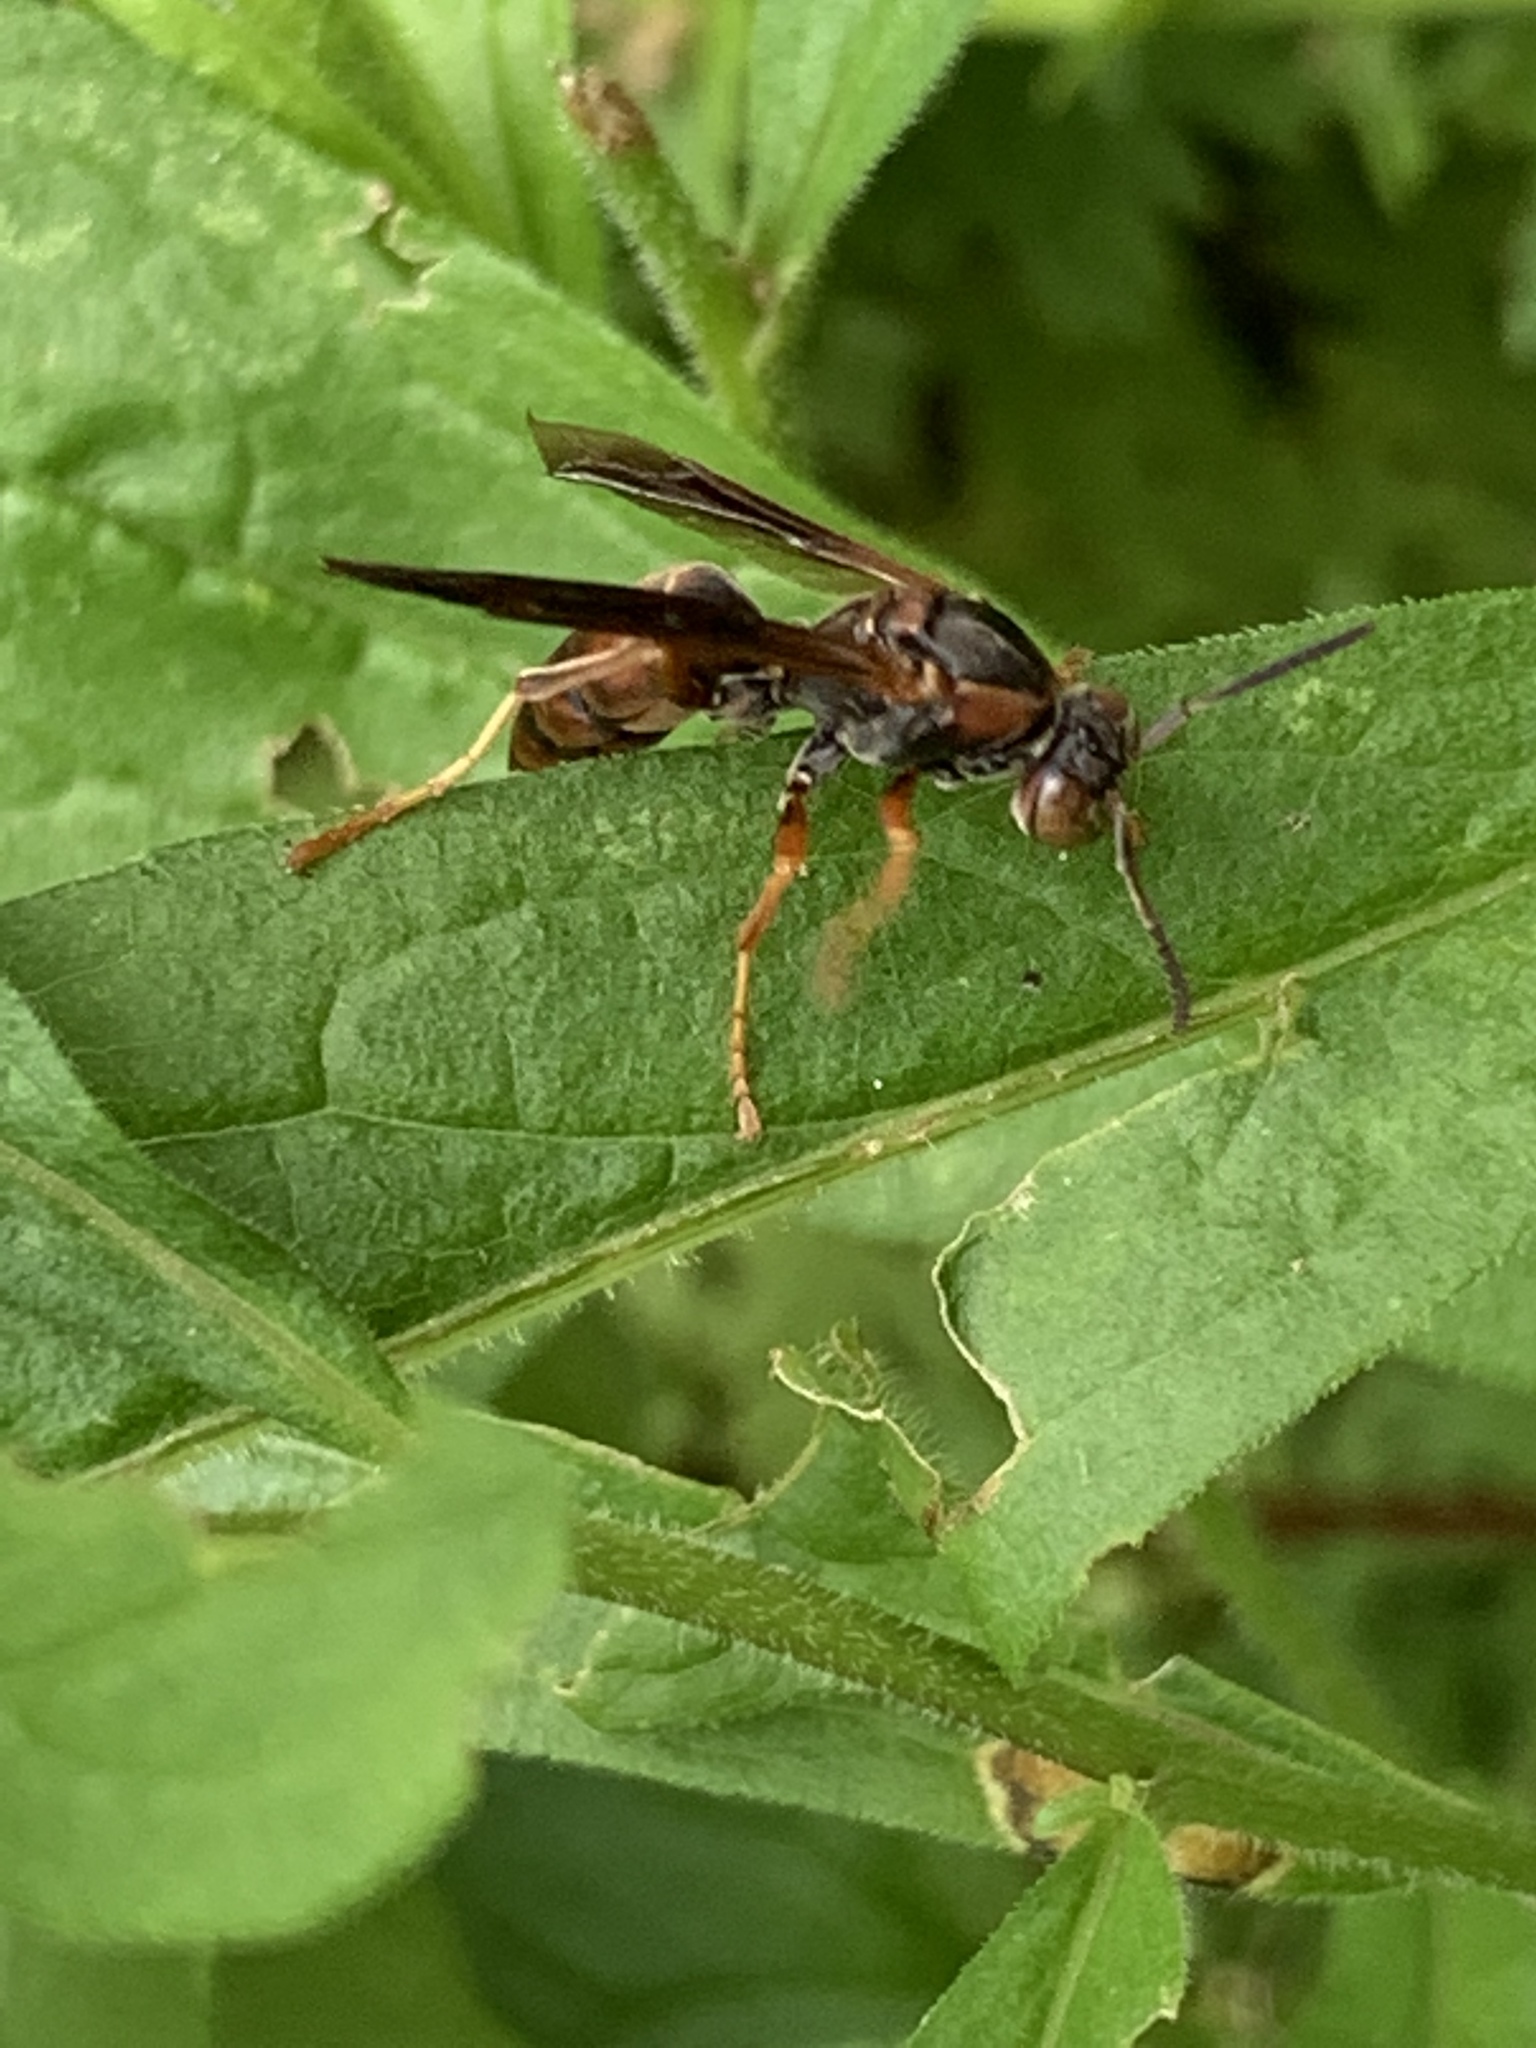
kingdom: Animalia
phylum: Arthropoda
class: Insecta
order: Hymenoptera
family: Eumenidae
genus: Polistes
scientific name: Polistes fuscatus
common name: Dark paper wasp
